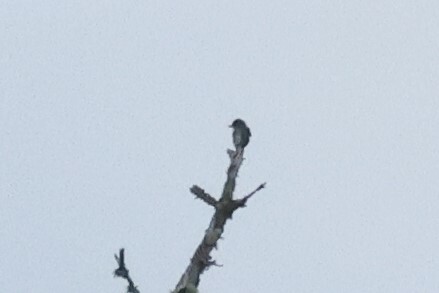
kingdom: Animalia
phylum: Chordata
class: Aves
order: Passeriformes
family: Tyrannidae
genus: Contopus
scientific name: Contopus cooperi
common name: Olive-sided flycatcher
